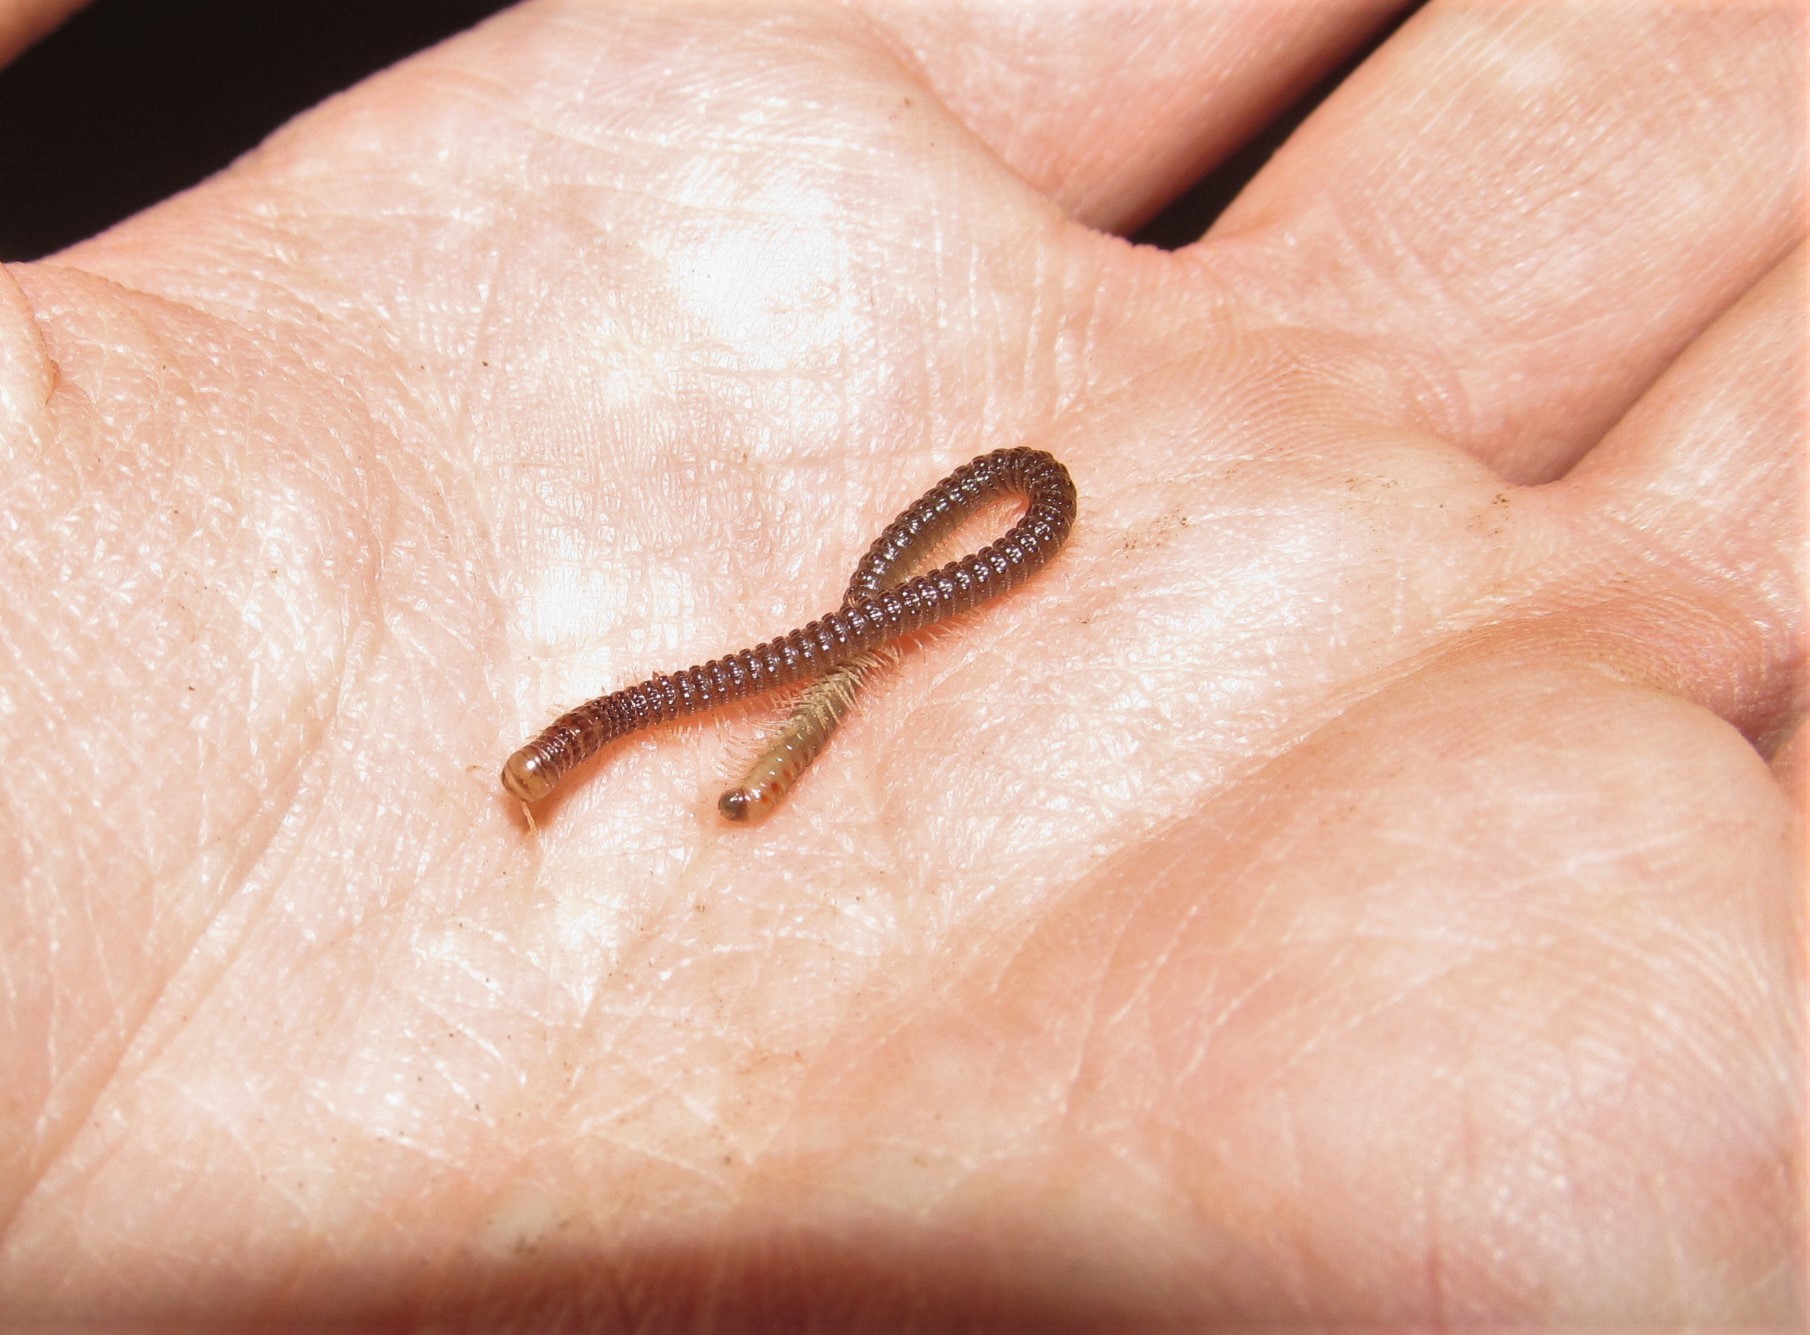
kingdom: Animalia
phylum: Arthropoda
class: Diplopoda
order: Spirostreptida
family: Cambalidae
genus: Cambala
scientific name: Cambala minor
